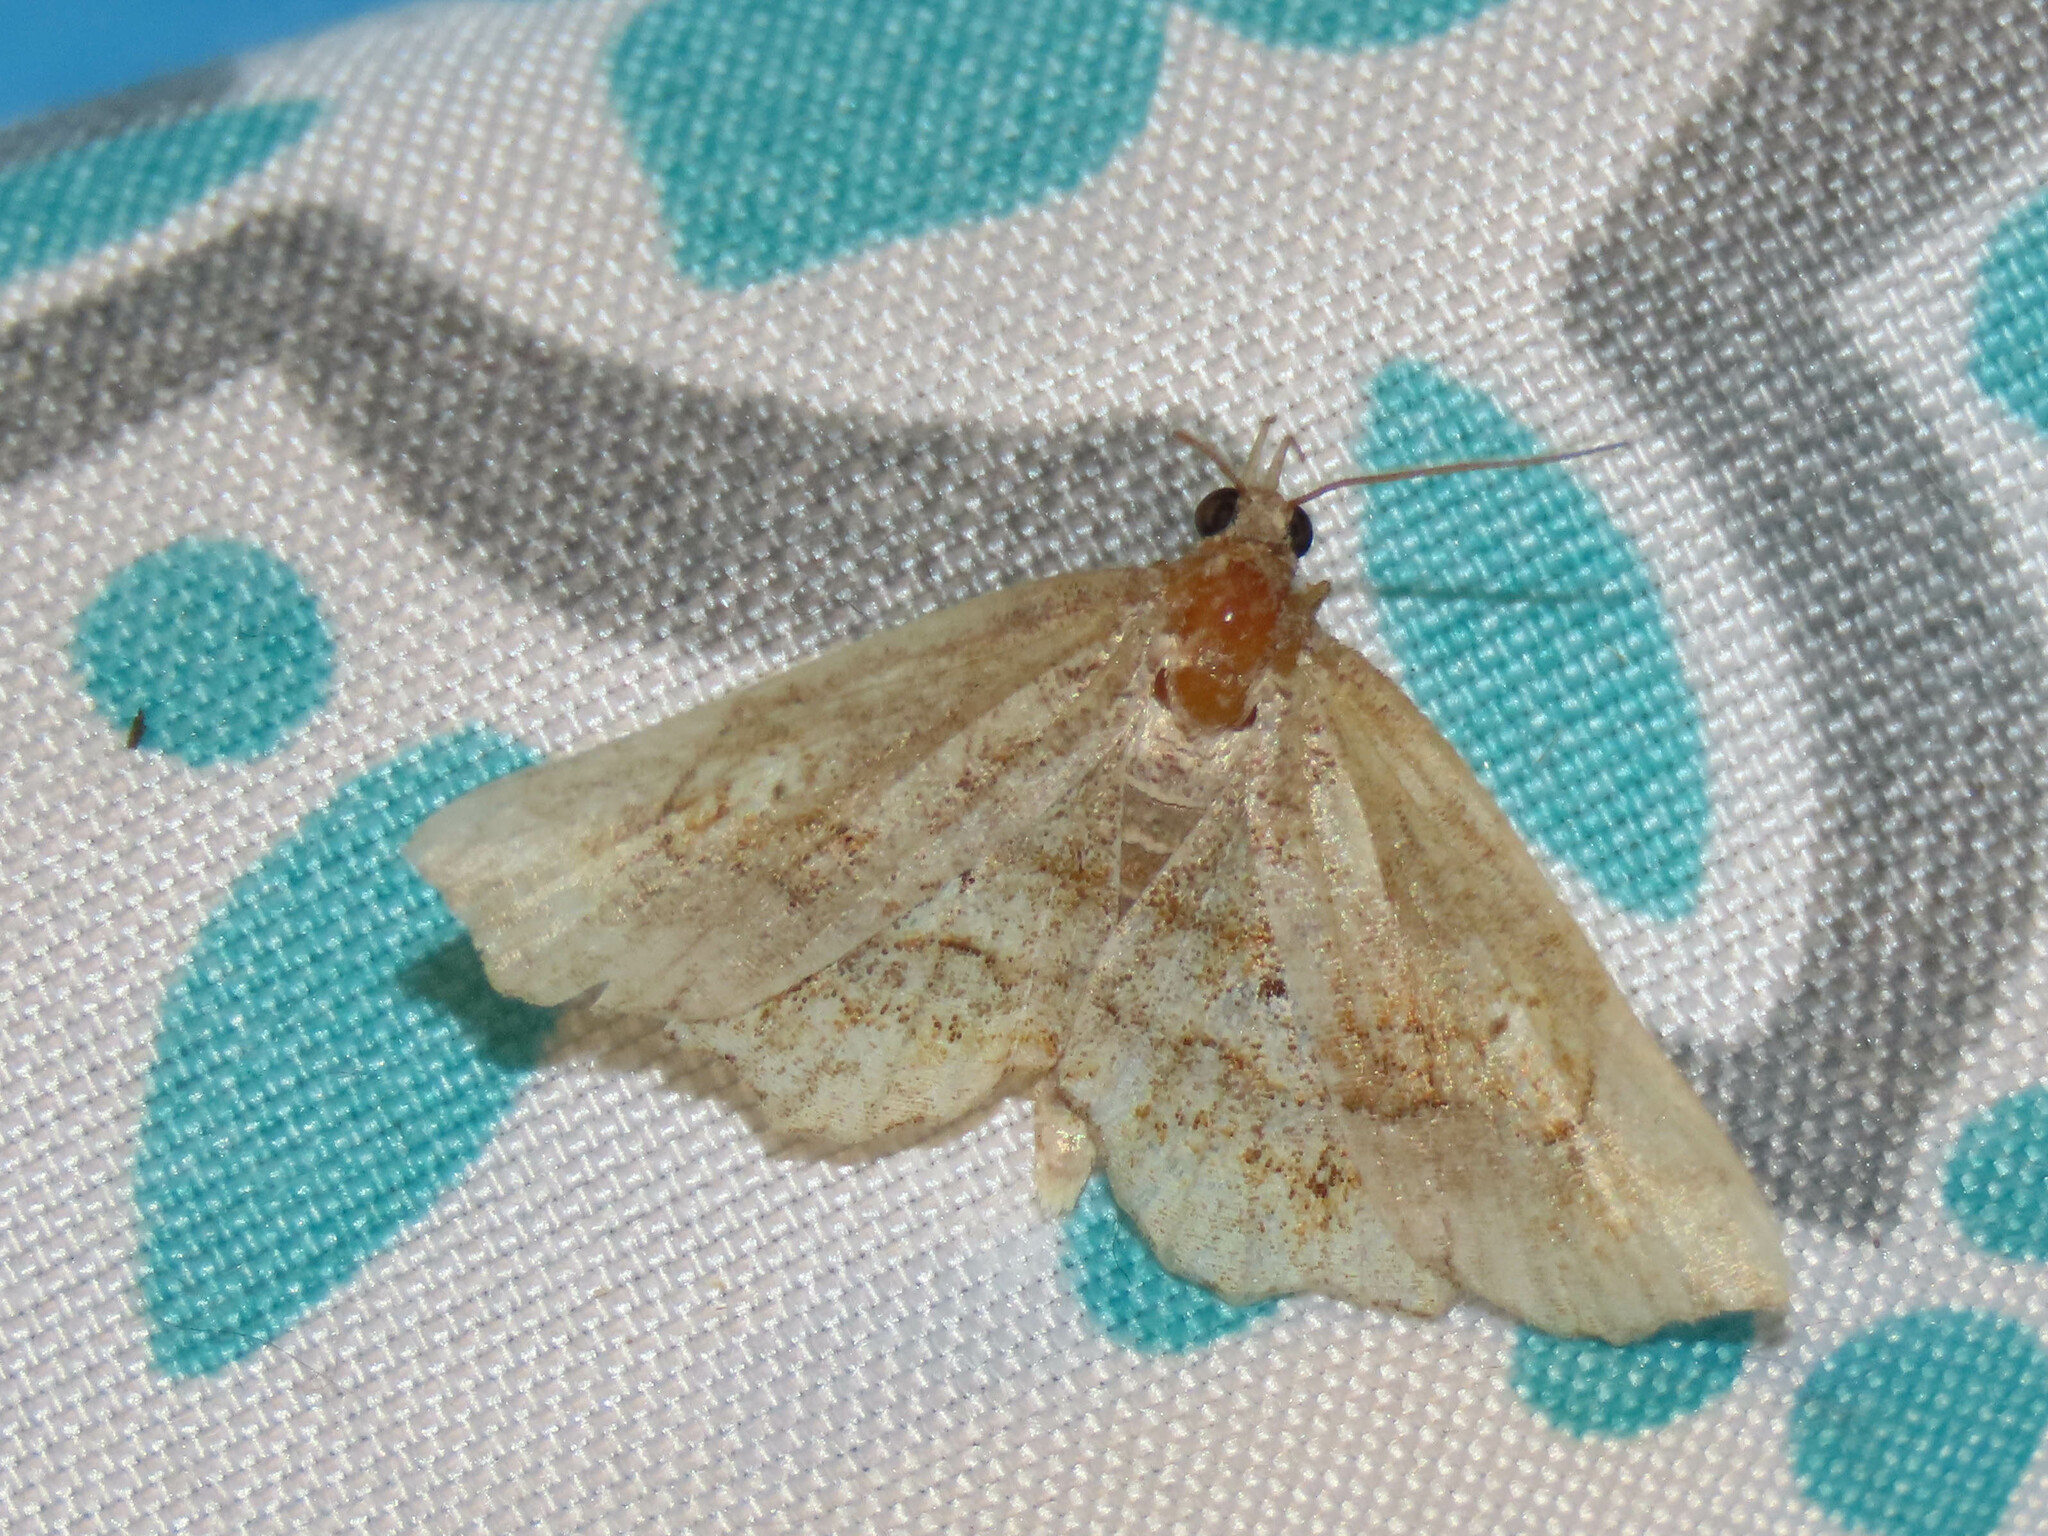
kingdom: Animalia
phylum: Arthropoda
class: Insecta
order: Lepidoptera
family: Erebidae
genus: Pangrapta
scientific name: Pangrapta decoralis
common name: Decorated owlet
